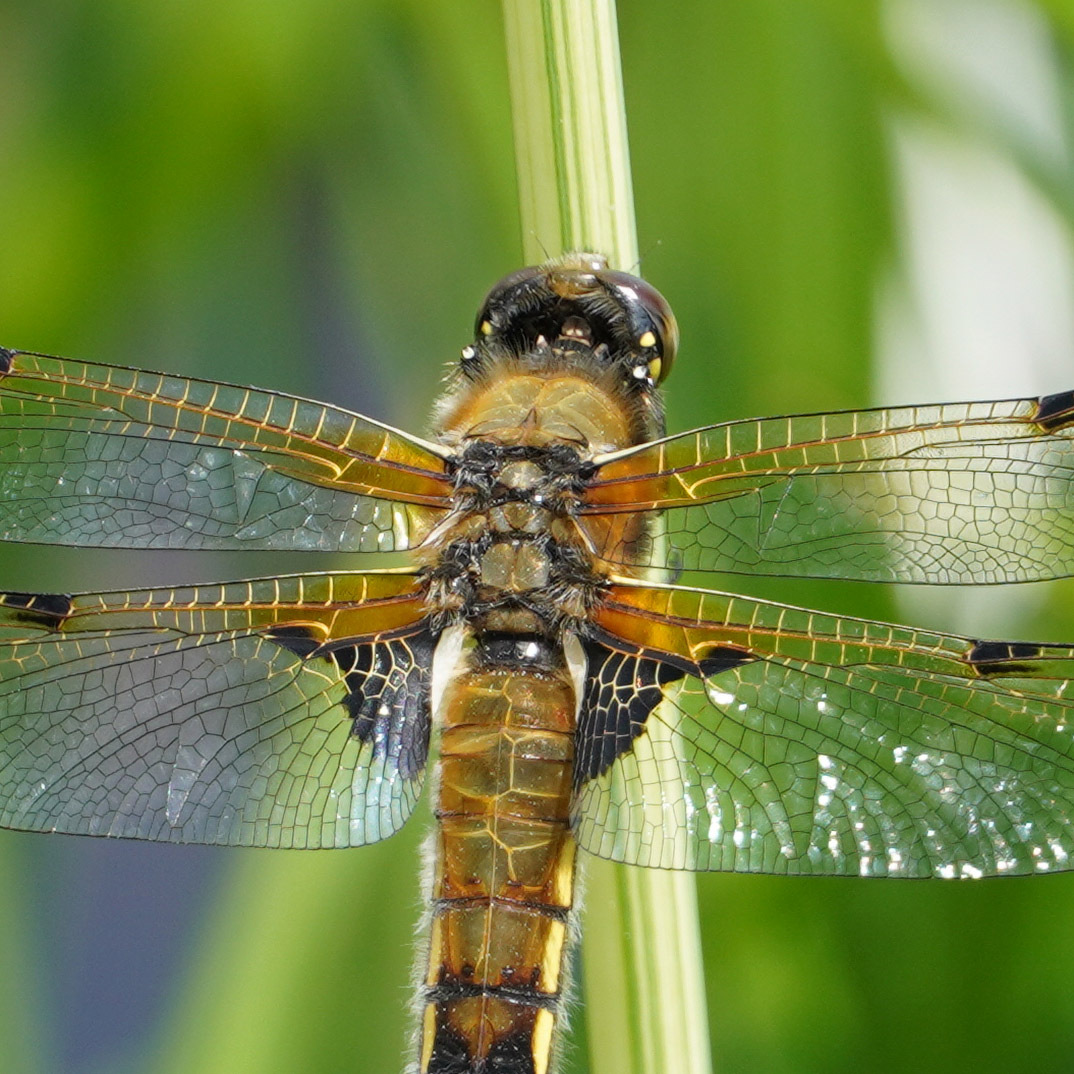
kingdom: Animalia
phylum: Arthropoda
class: Insecta
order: Odonata
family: Libellulidae
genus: Libellula
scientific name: Libellula quadrimaculata
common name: Four-spotted chaser
